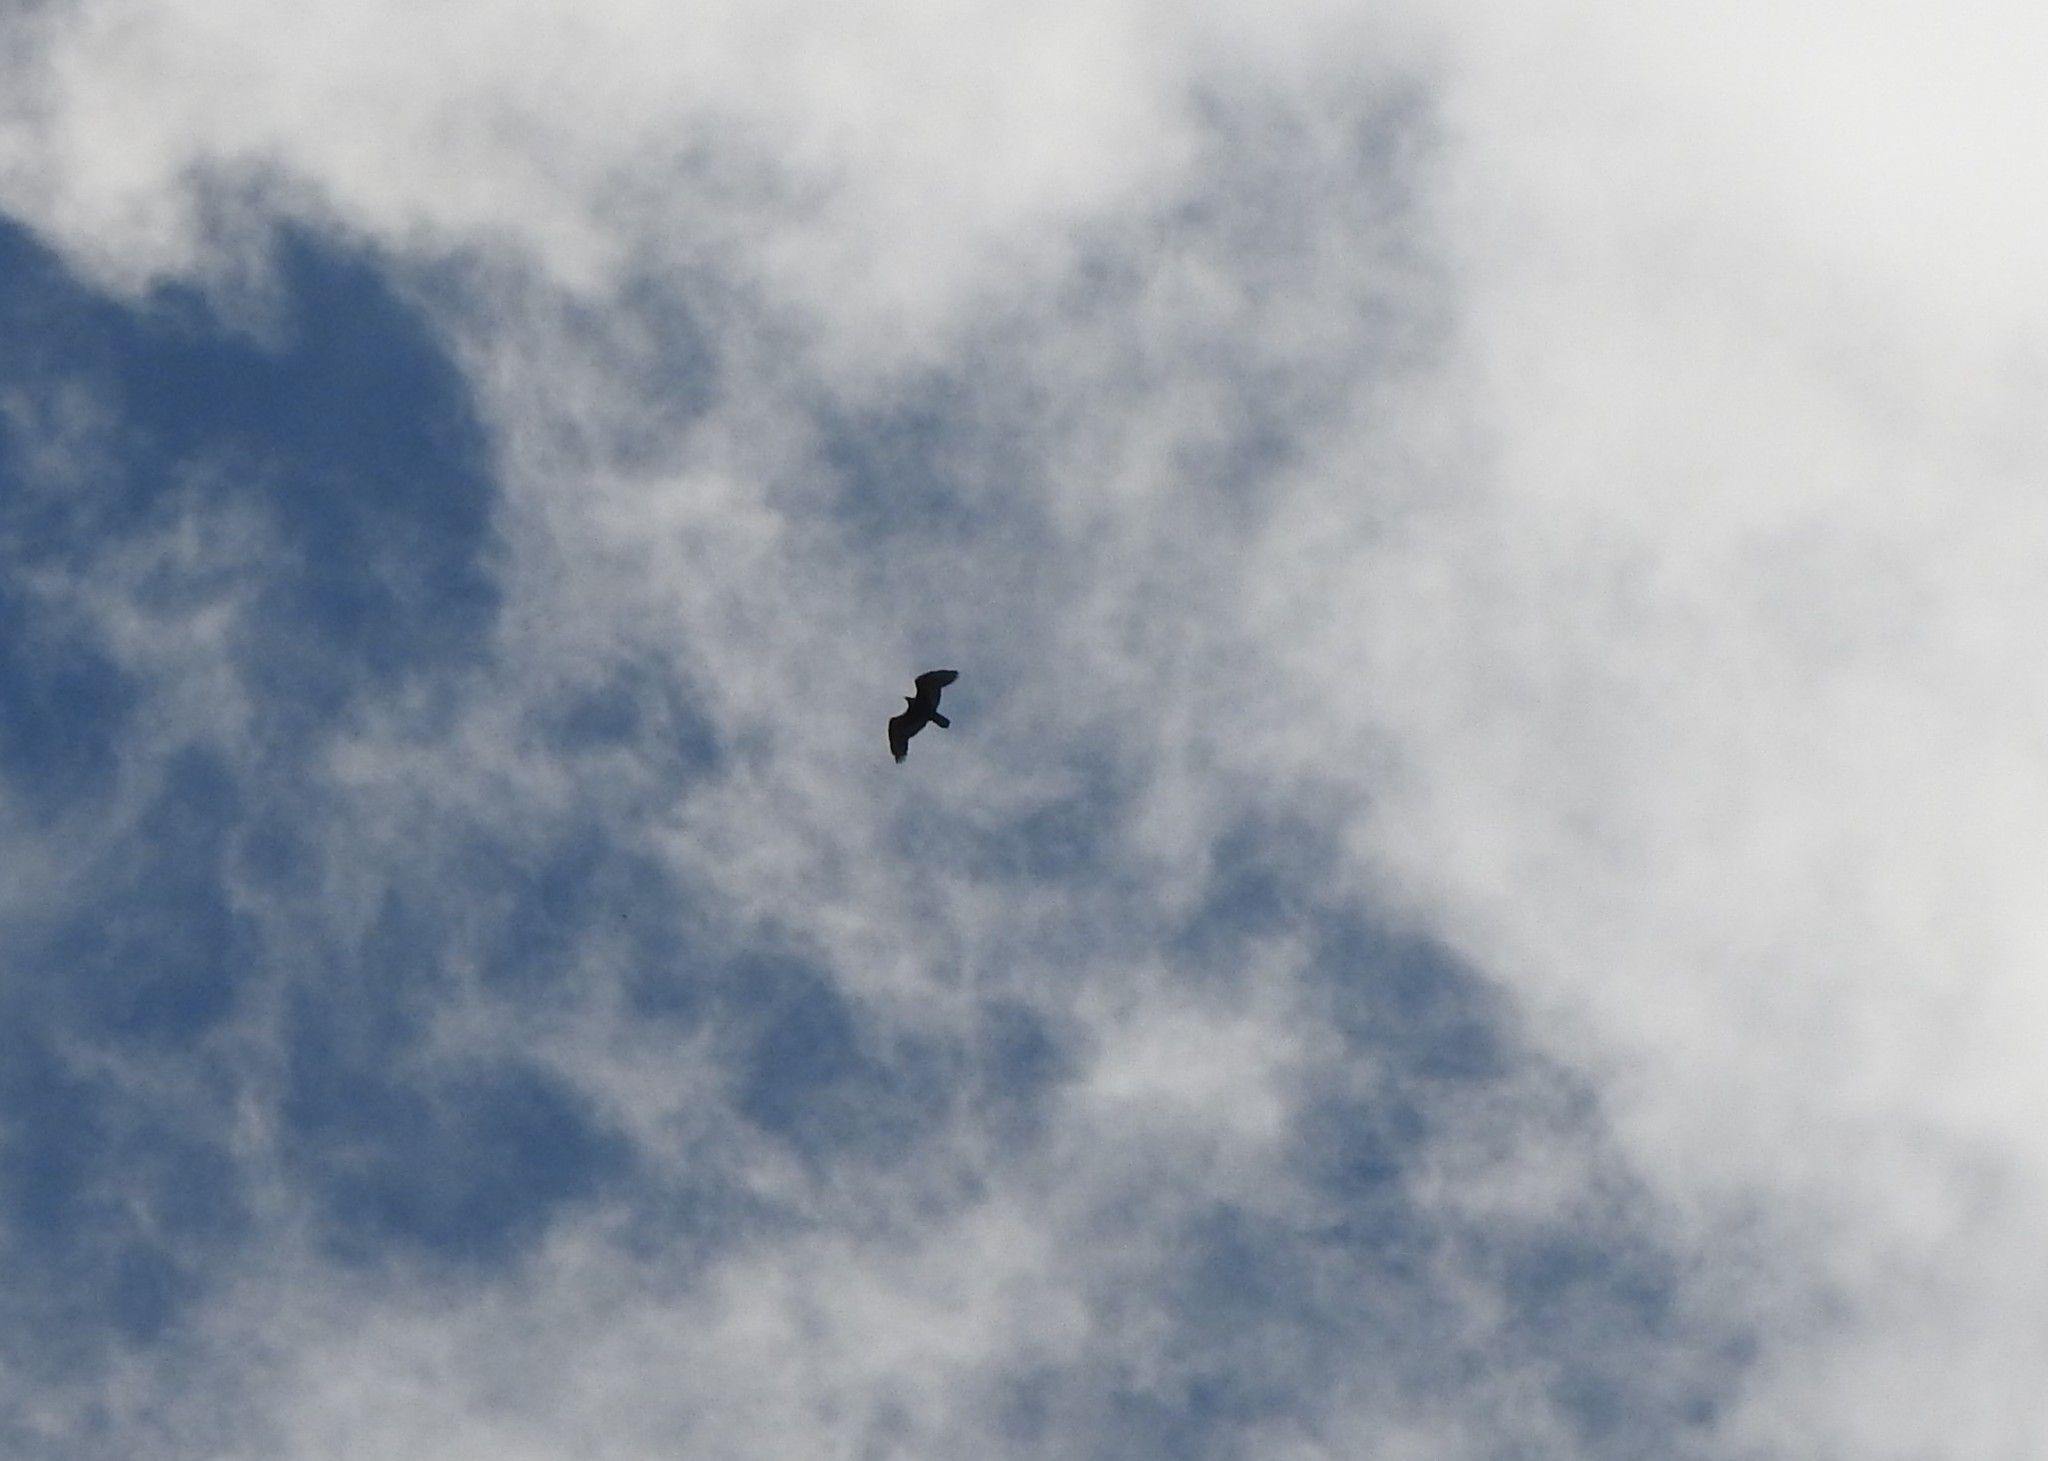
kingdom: Animalia
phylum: Chordata
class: Aves
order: Accipitriformes
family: Cathartidae
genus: Cathartes
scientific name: Cathartes aura
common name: Turkey vulture
